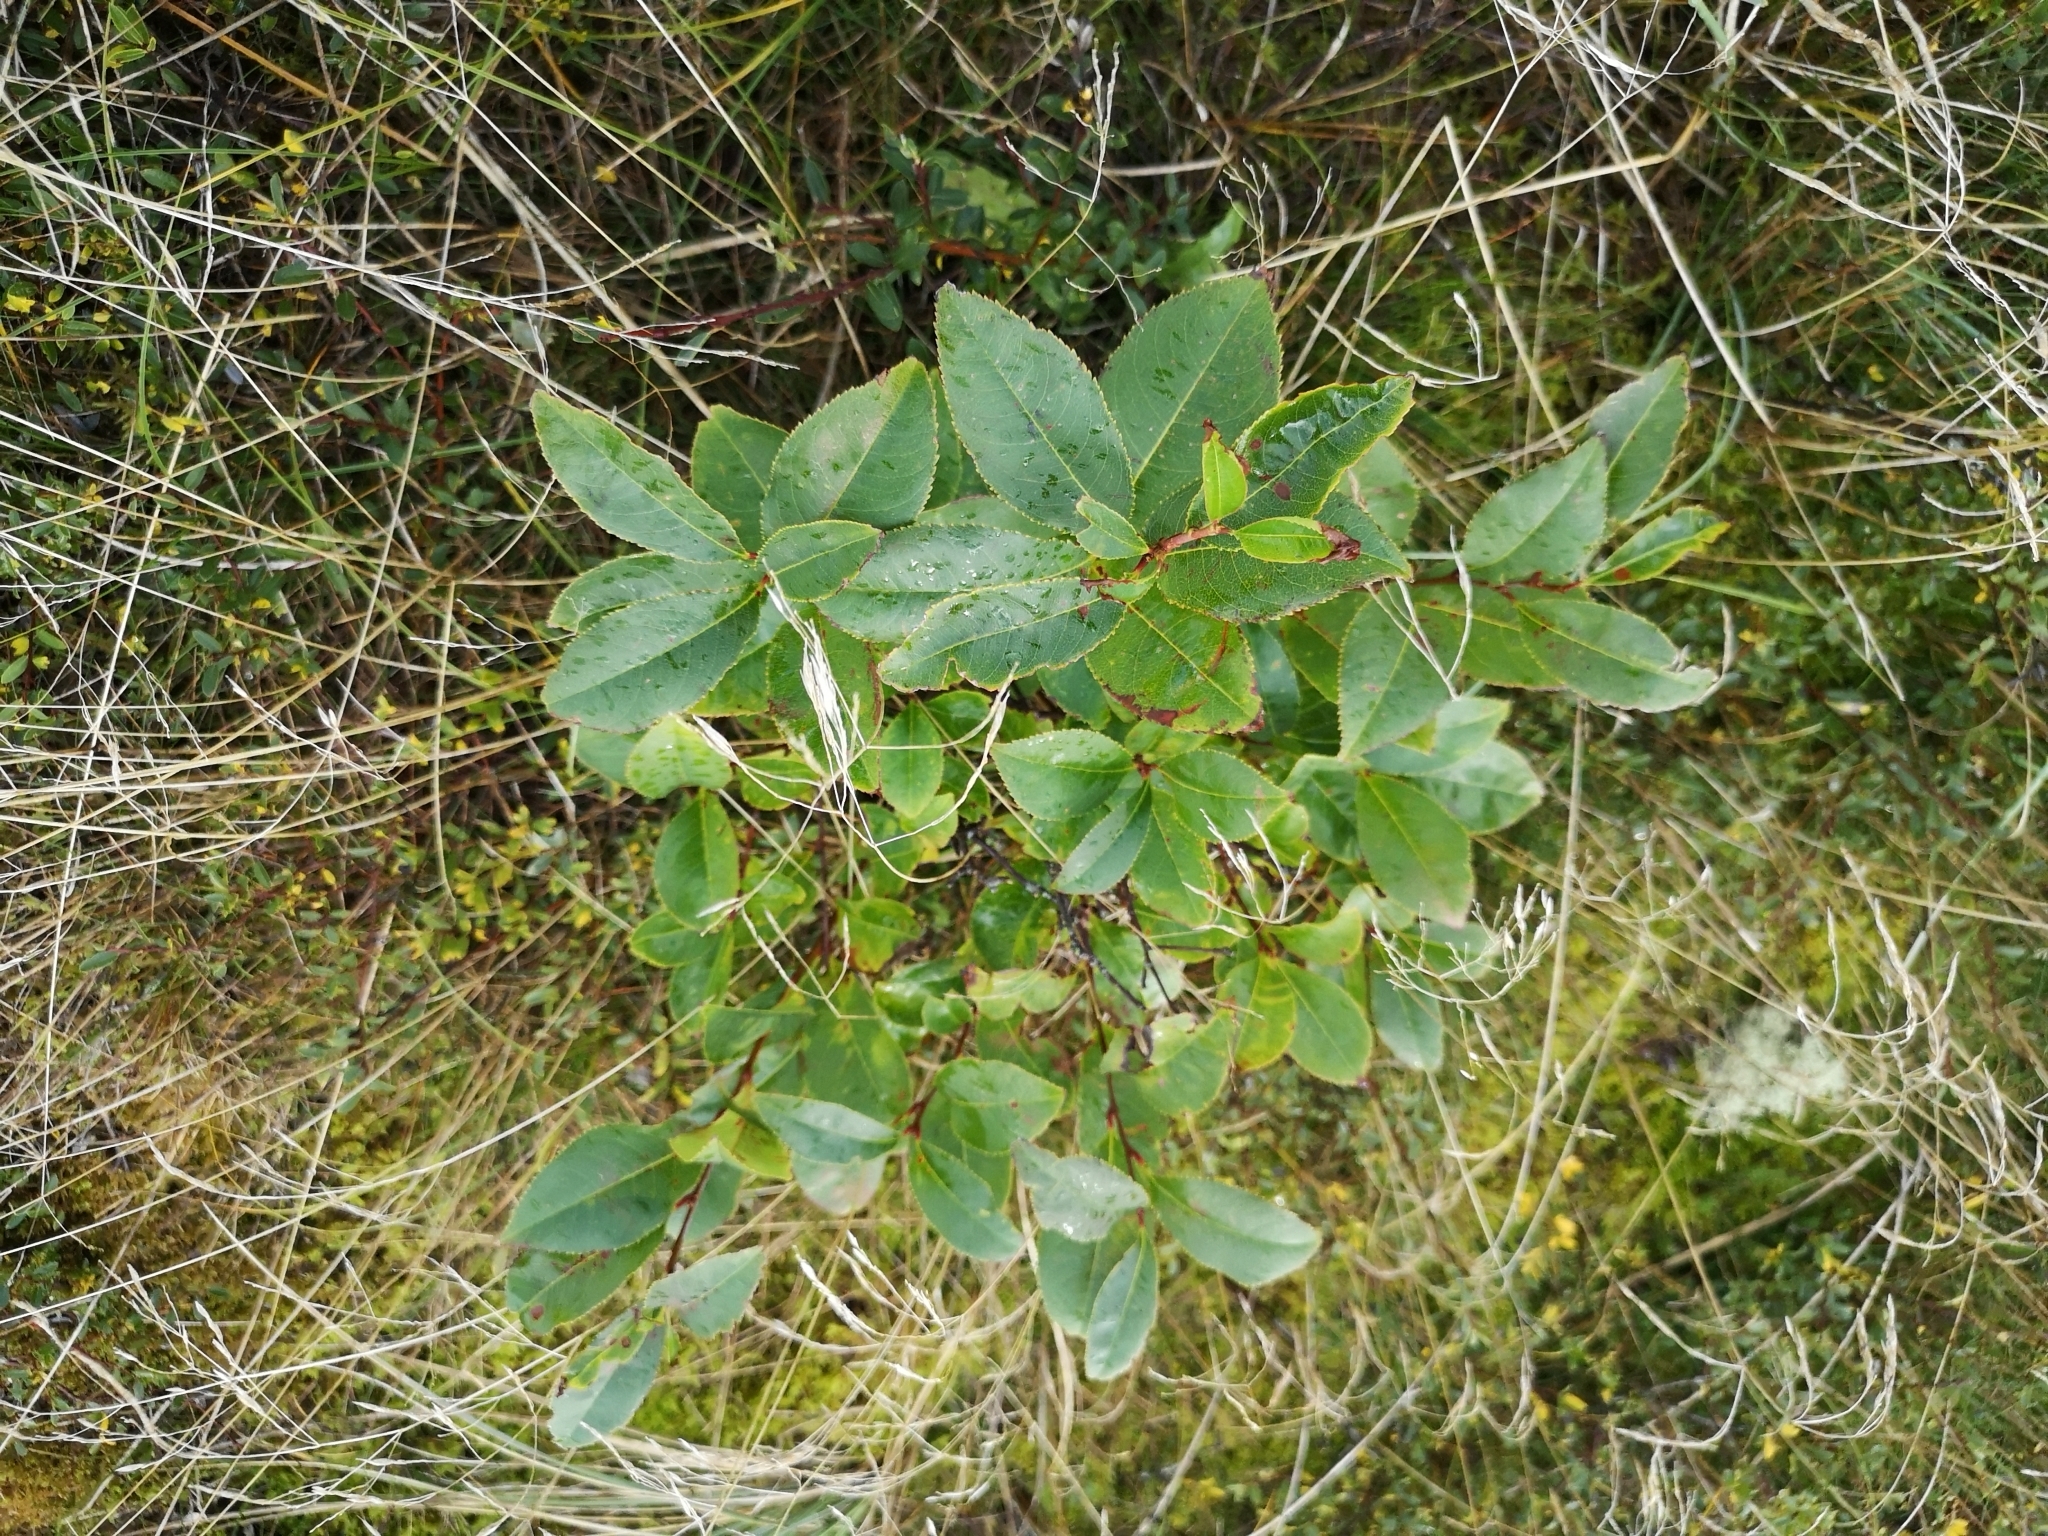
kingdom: Plantae
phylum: Tracheophyta
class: Magnoliopsida
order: Rosales
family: Rosaceae
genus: Prunus
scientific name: Prunus serotina
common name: Black cherry
